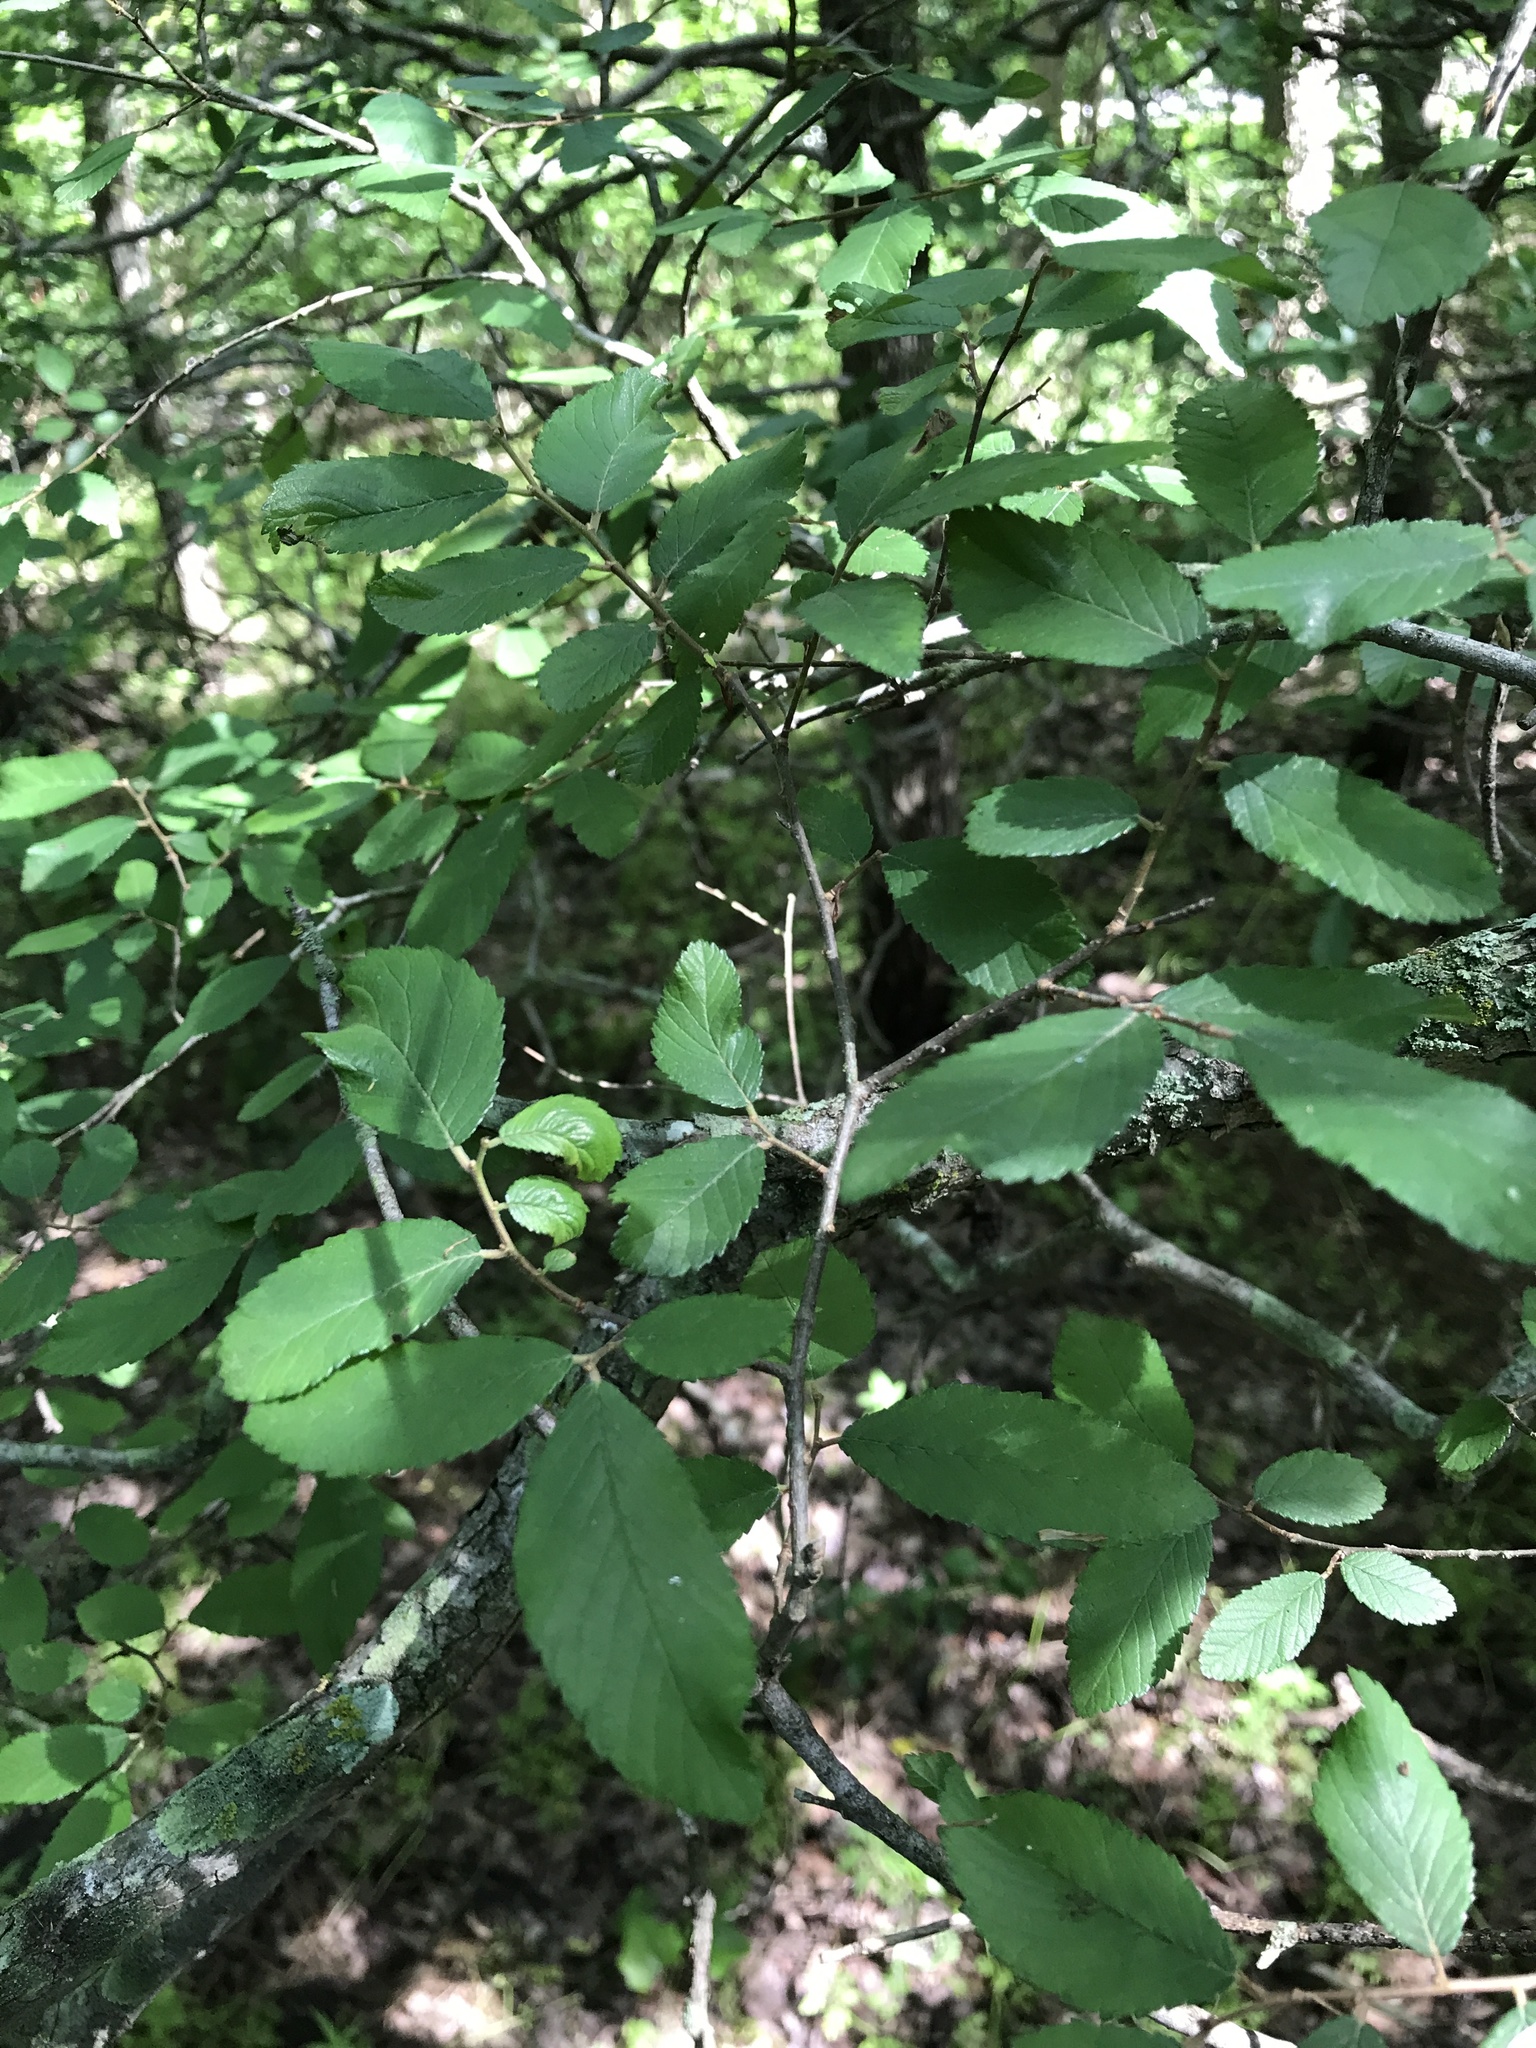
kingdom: Plantae
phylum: Tracheophyta
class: Magnoliopsida
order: Rosales
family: Ulmaceae
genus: Ulmus
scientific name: Ulmus crassifolia
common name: Basket elm
